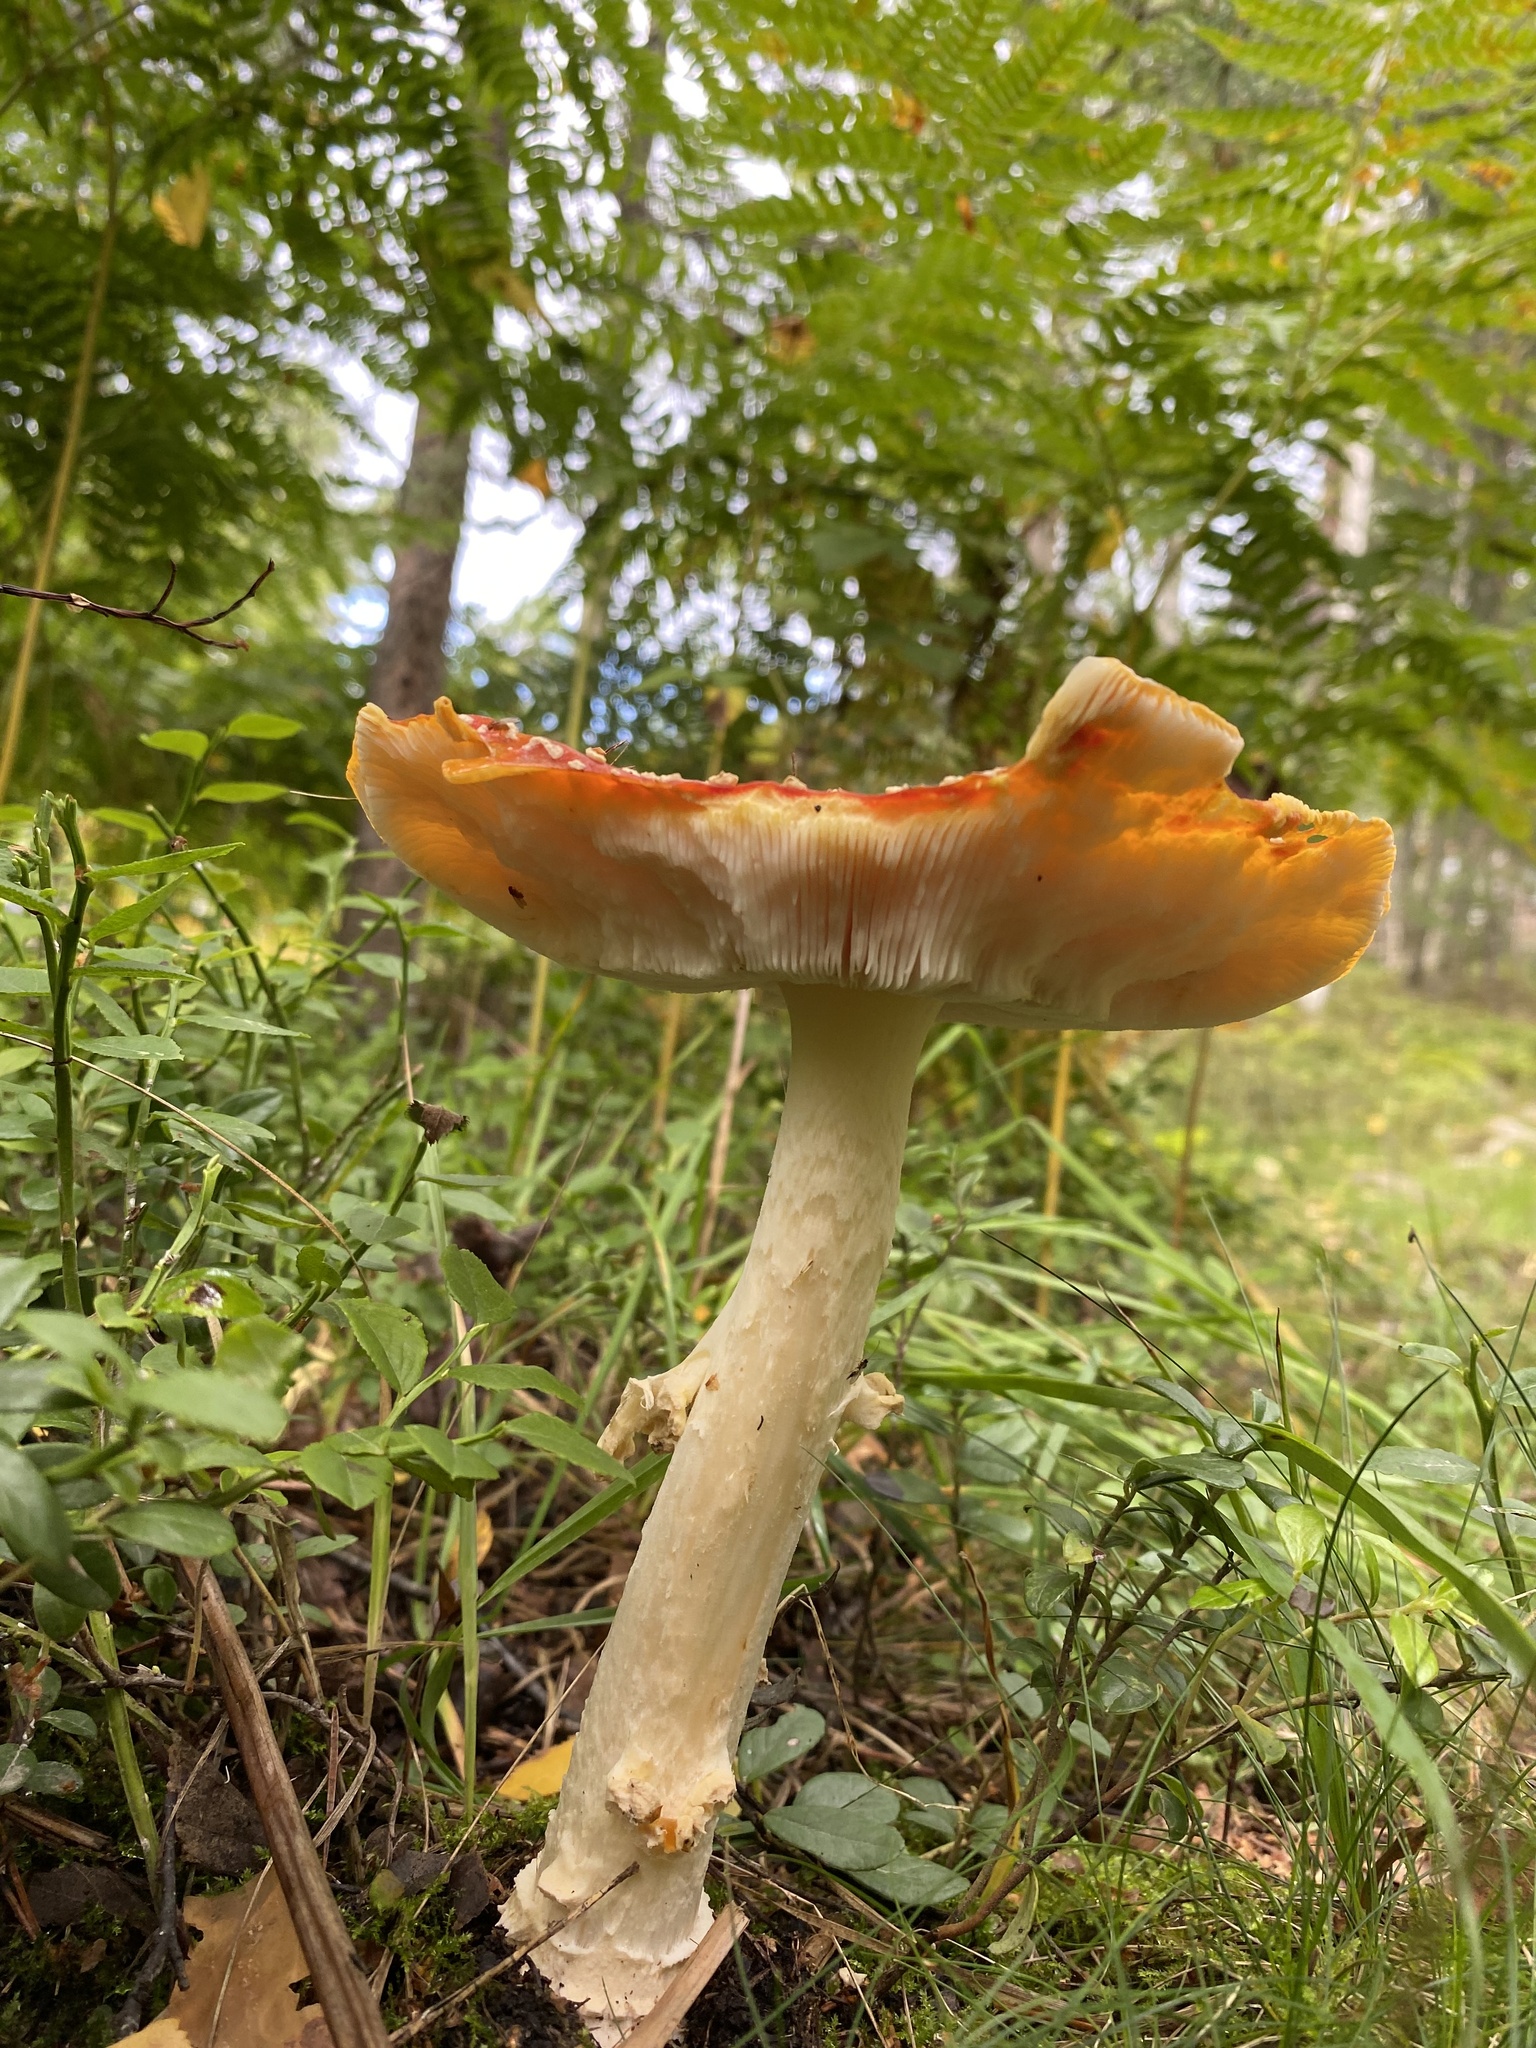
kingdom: Fungi
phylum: Basidiomycota
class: Agaricomycetes
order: Agaricales
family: Amanitaceae
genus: Amanita
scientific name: Amanita muscaria
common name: Fly agaric
